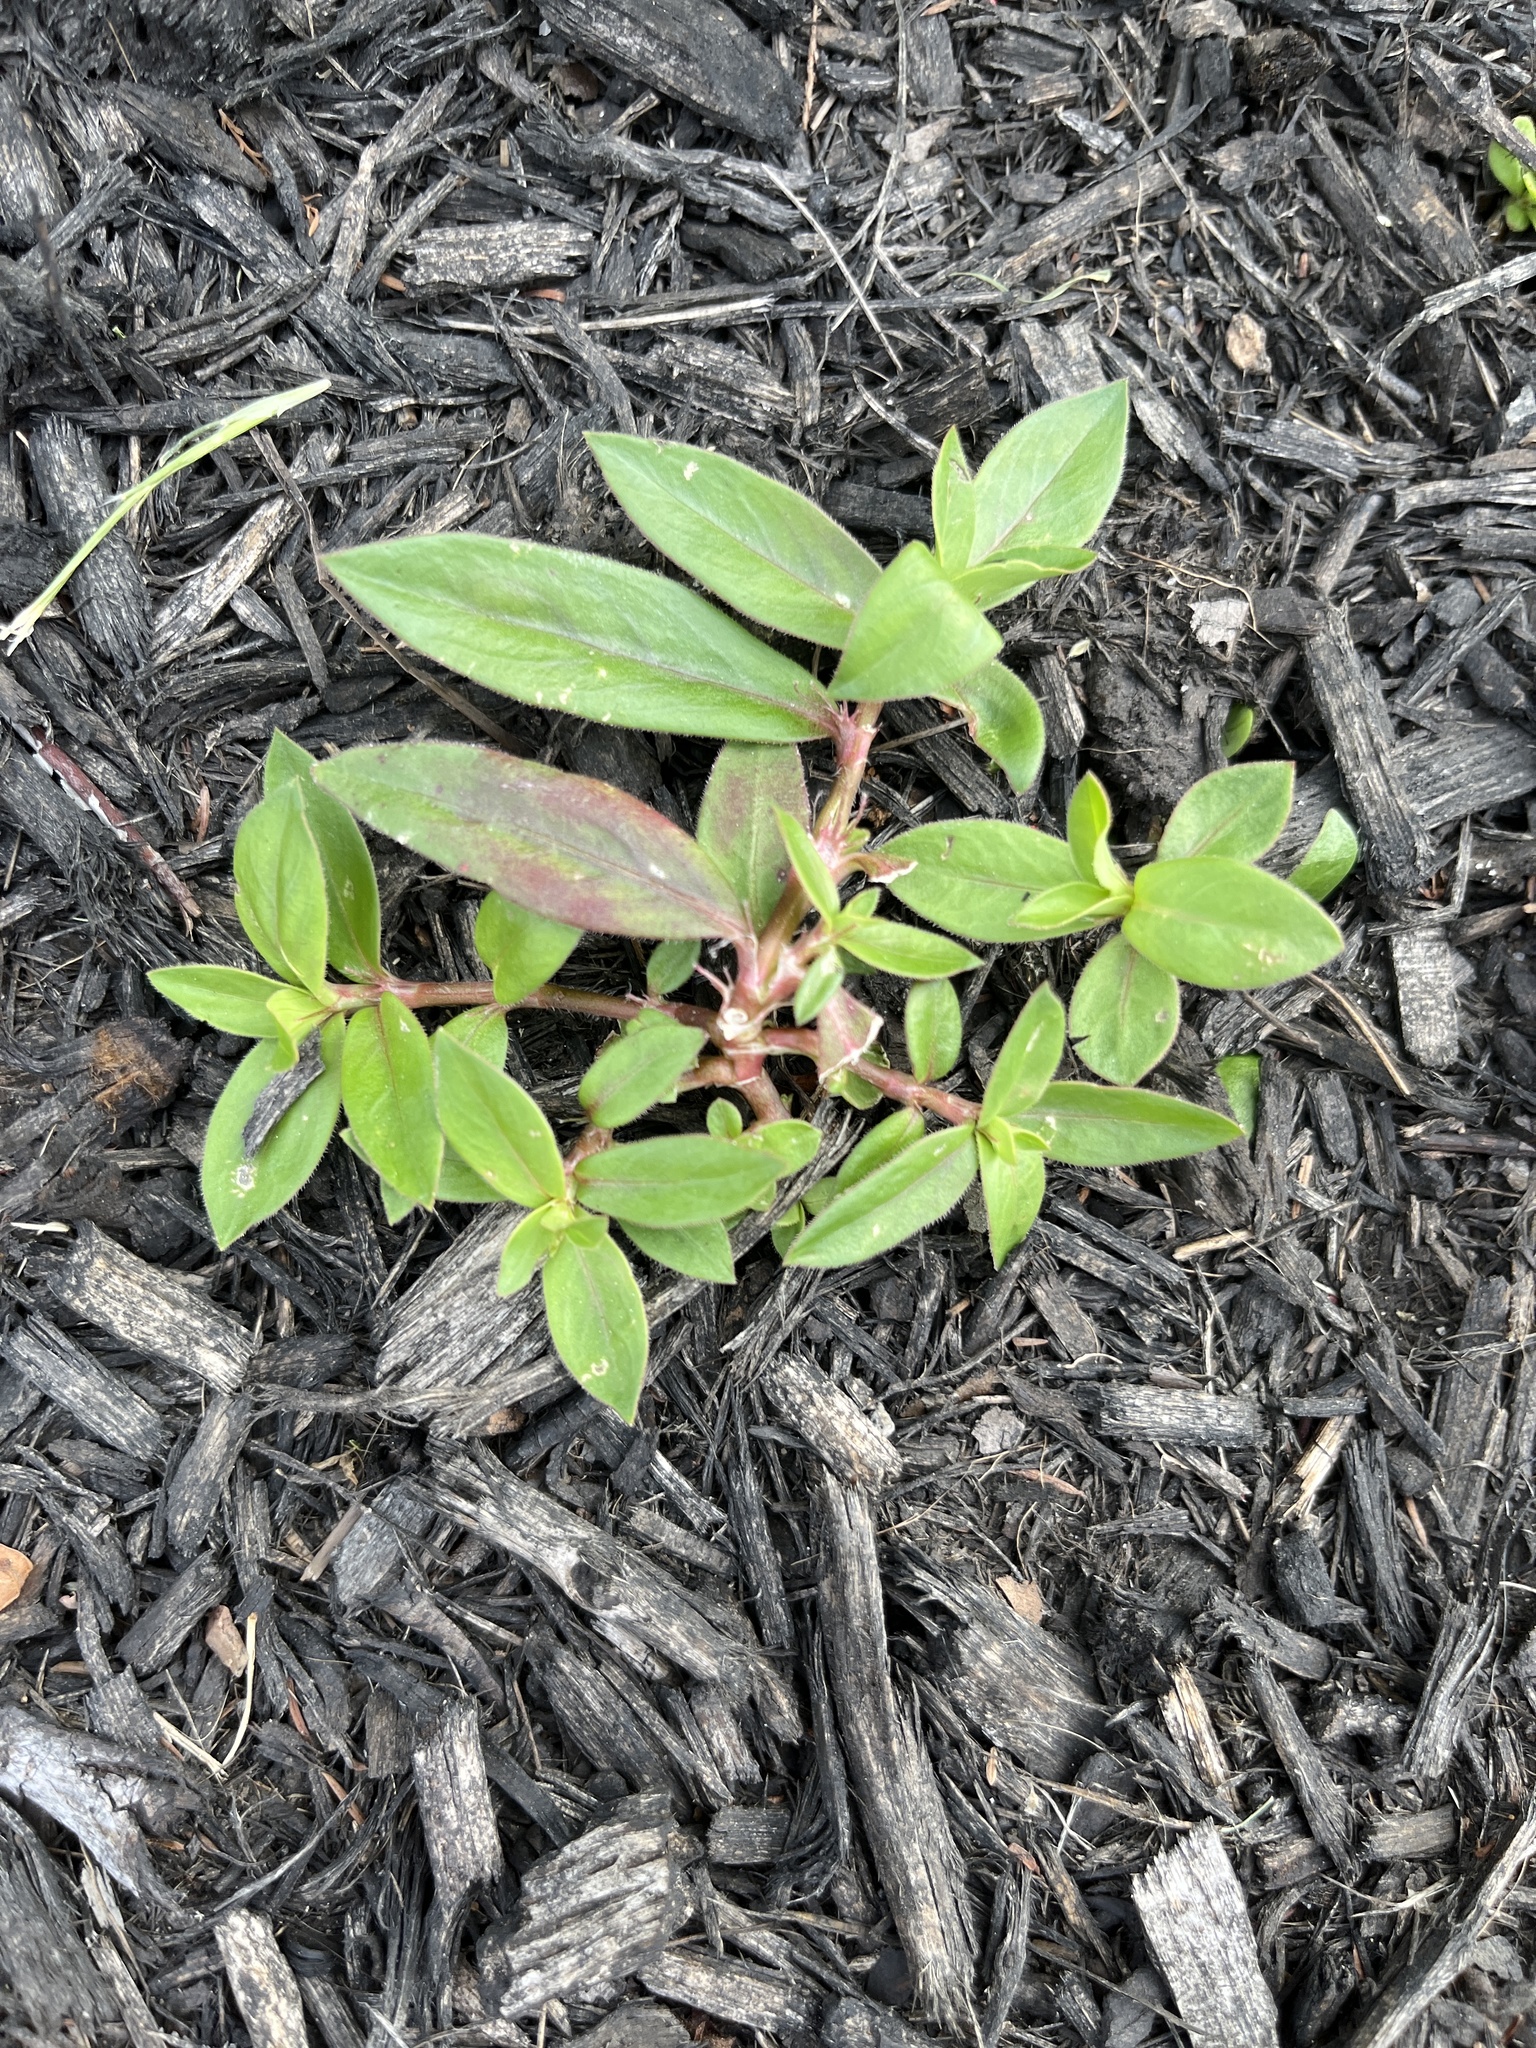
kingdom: Plantae
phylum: Tracheophyta
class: Magnoliopsida
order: Gentianales
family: Rubiaceae
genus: Diodia
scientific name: Diodia virginiana
